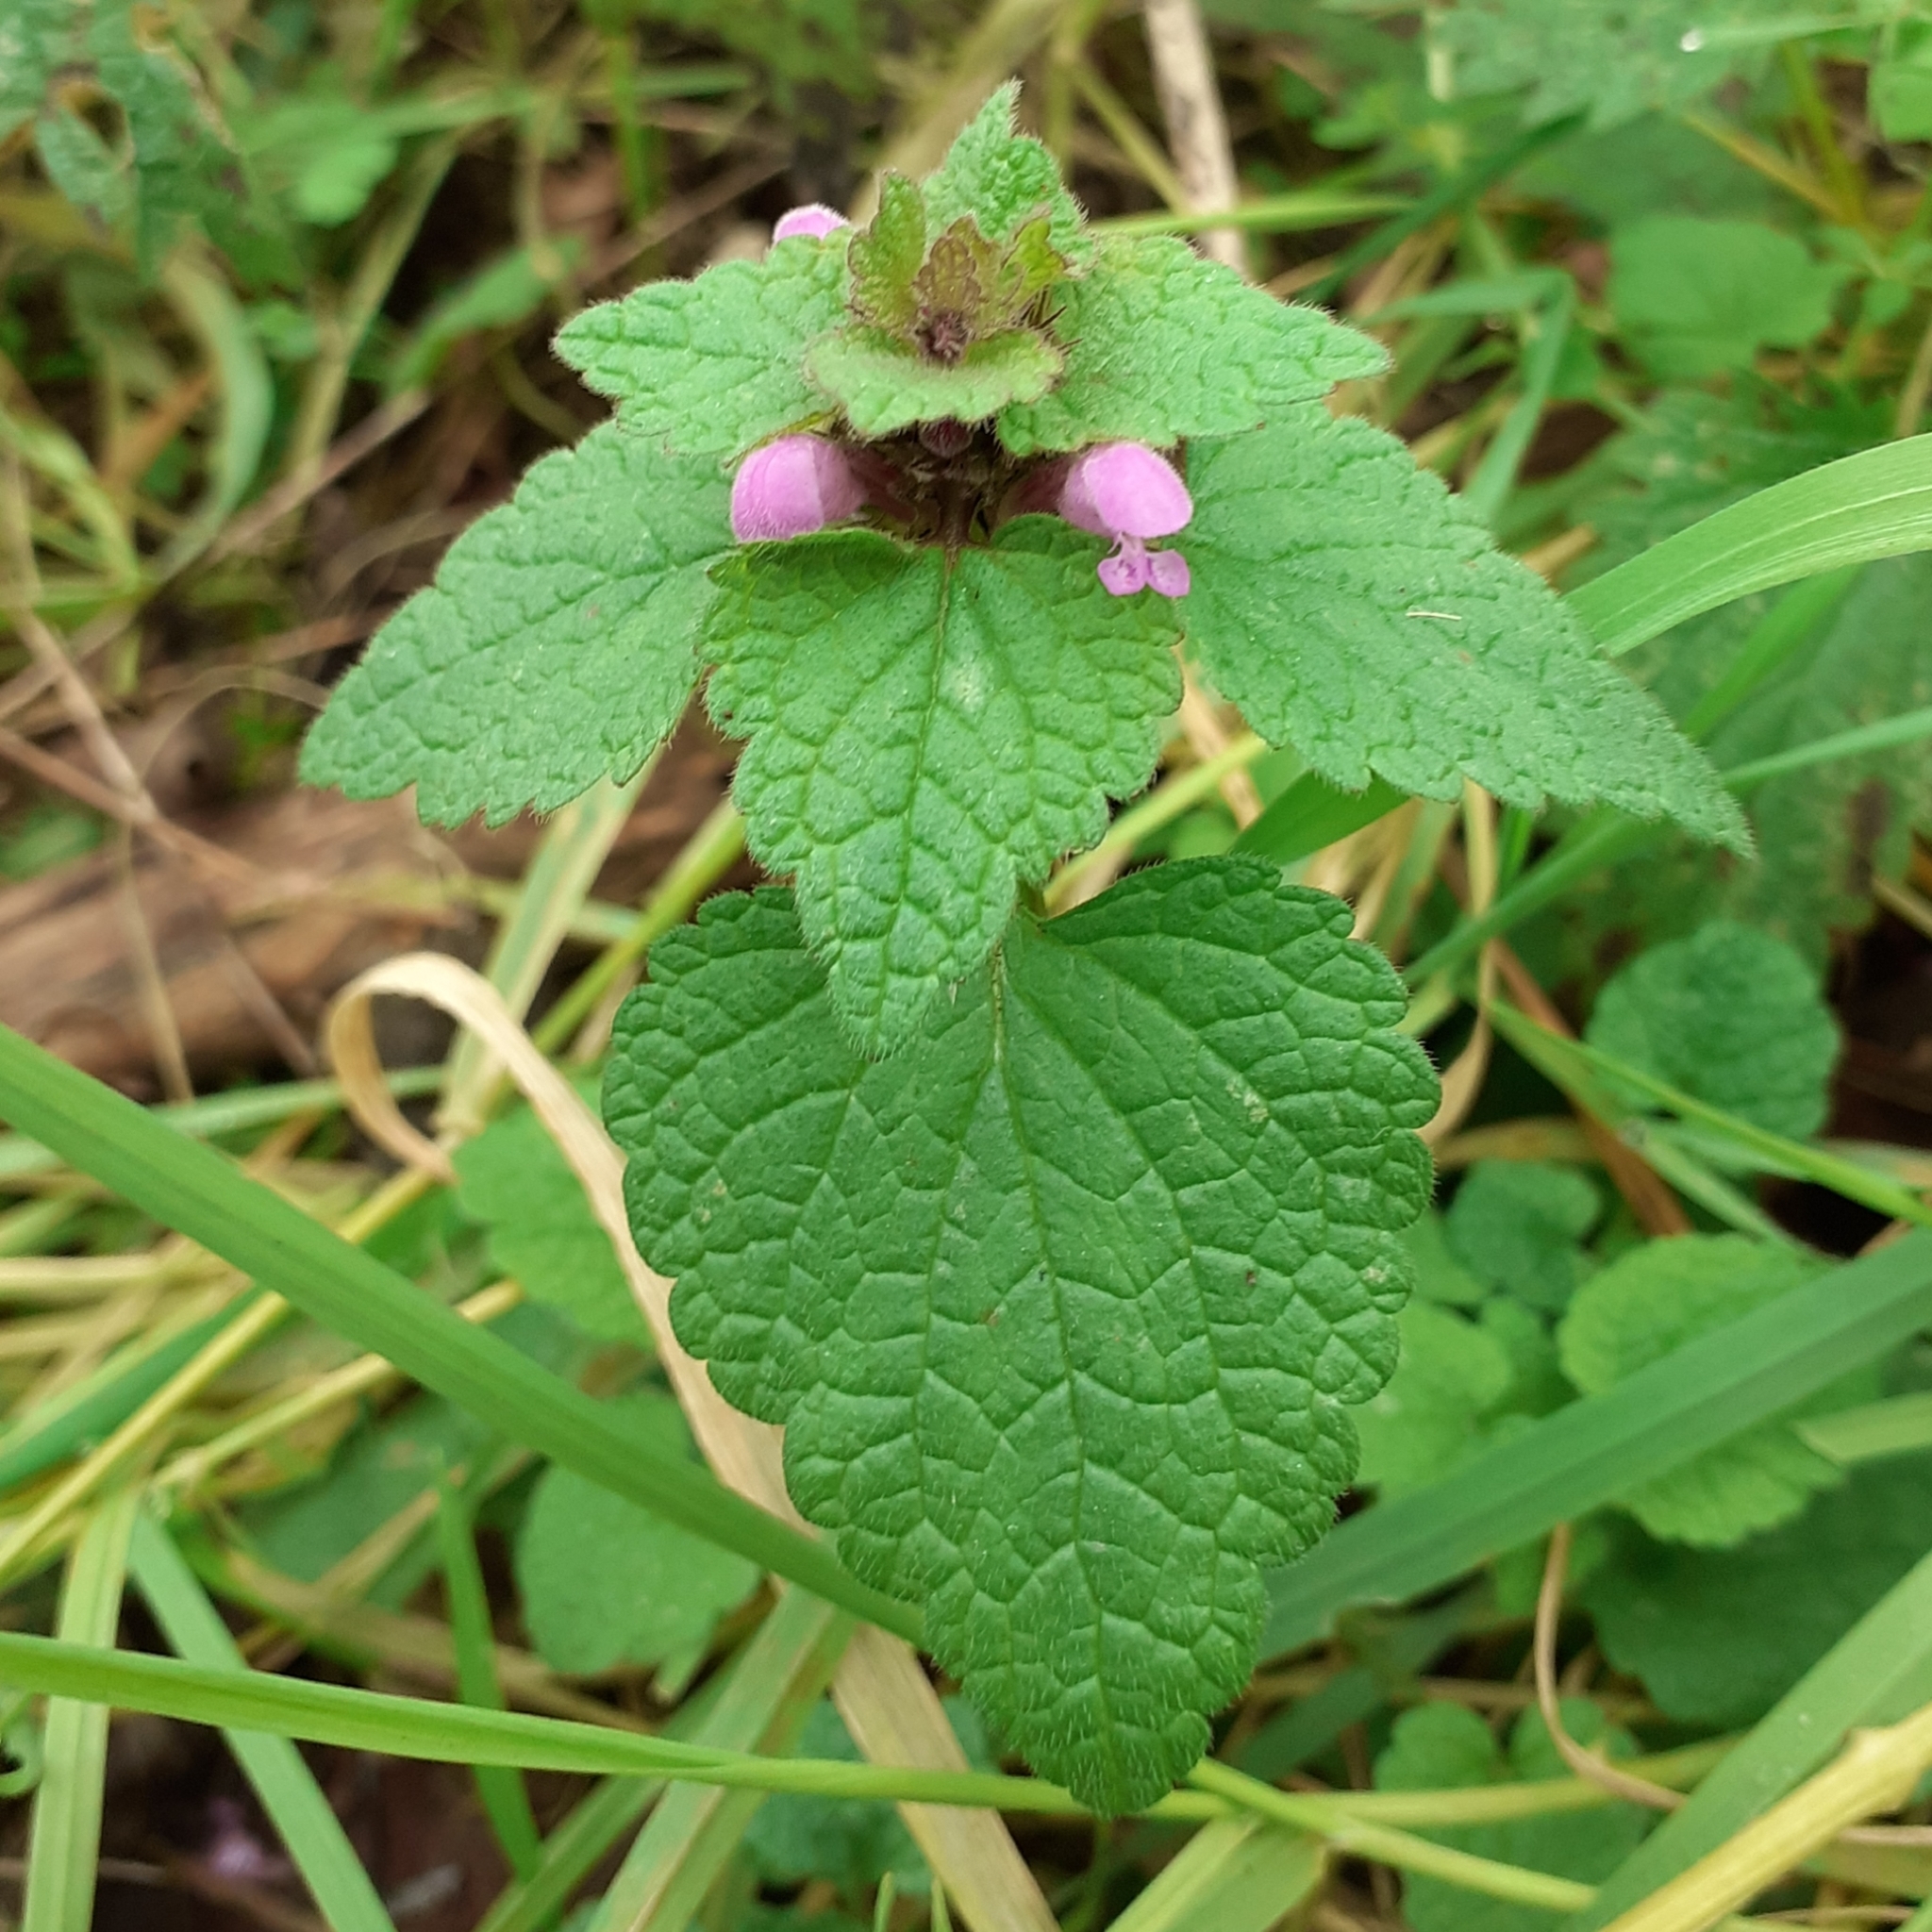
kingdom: Plantae
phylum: Tracheophyta
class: Magnoliopsida
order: Lamiales
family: Lamiaceae
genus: Lamium
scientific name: Lamium purpureum
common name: Red dead-nettle
